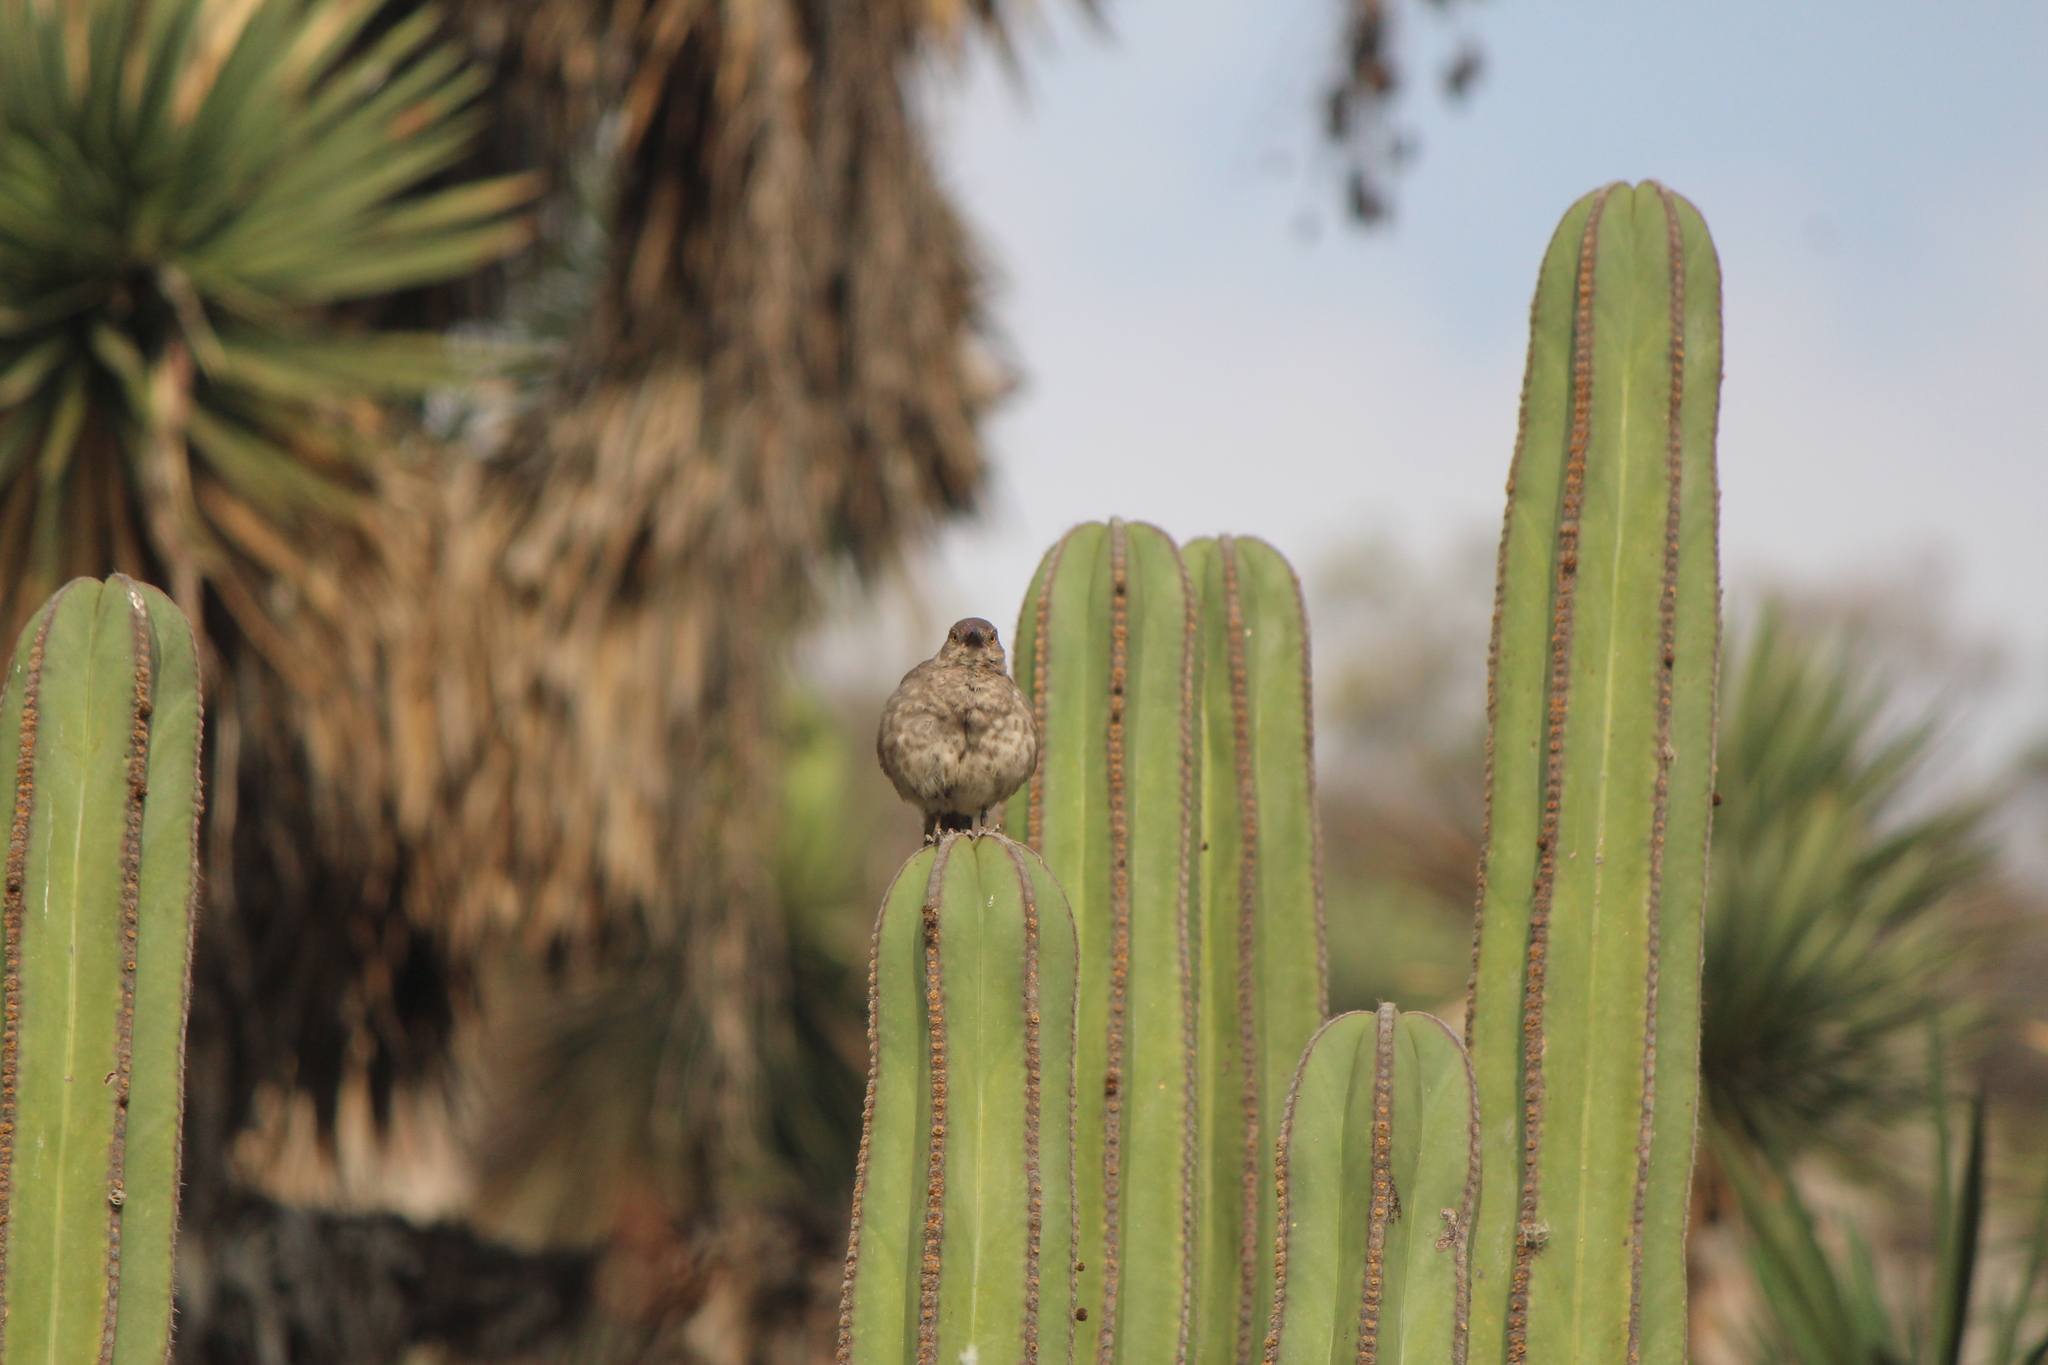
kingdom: Animalia
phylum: Chordata
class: Aves
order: Passeriformes
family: Mimidae
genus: Toxostoma
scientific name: Toxostoma curvirostre
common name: Curve-billed thrasher
